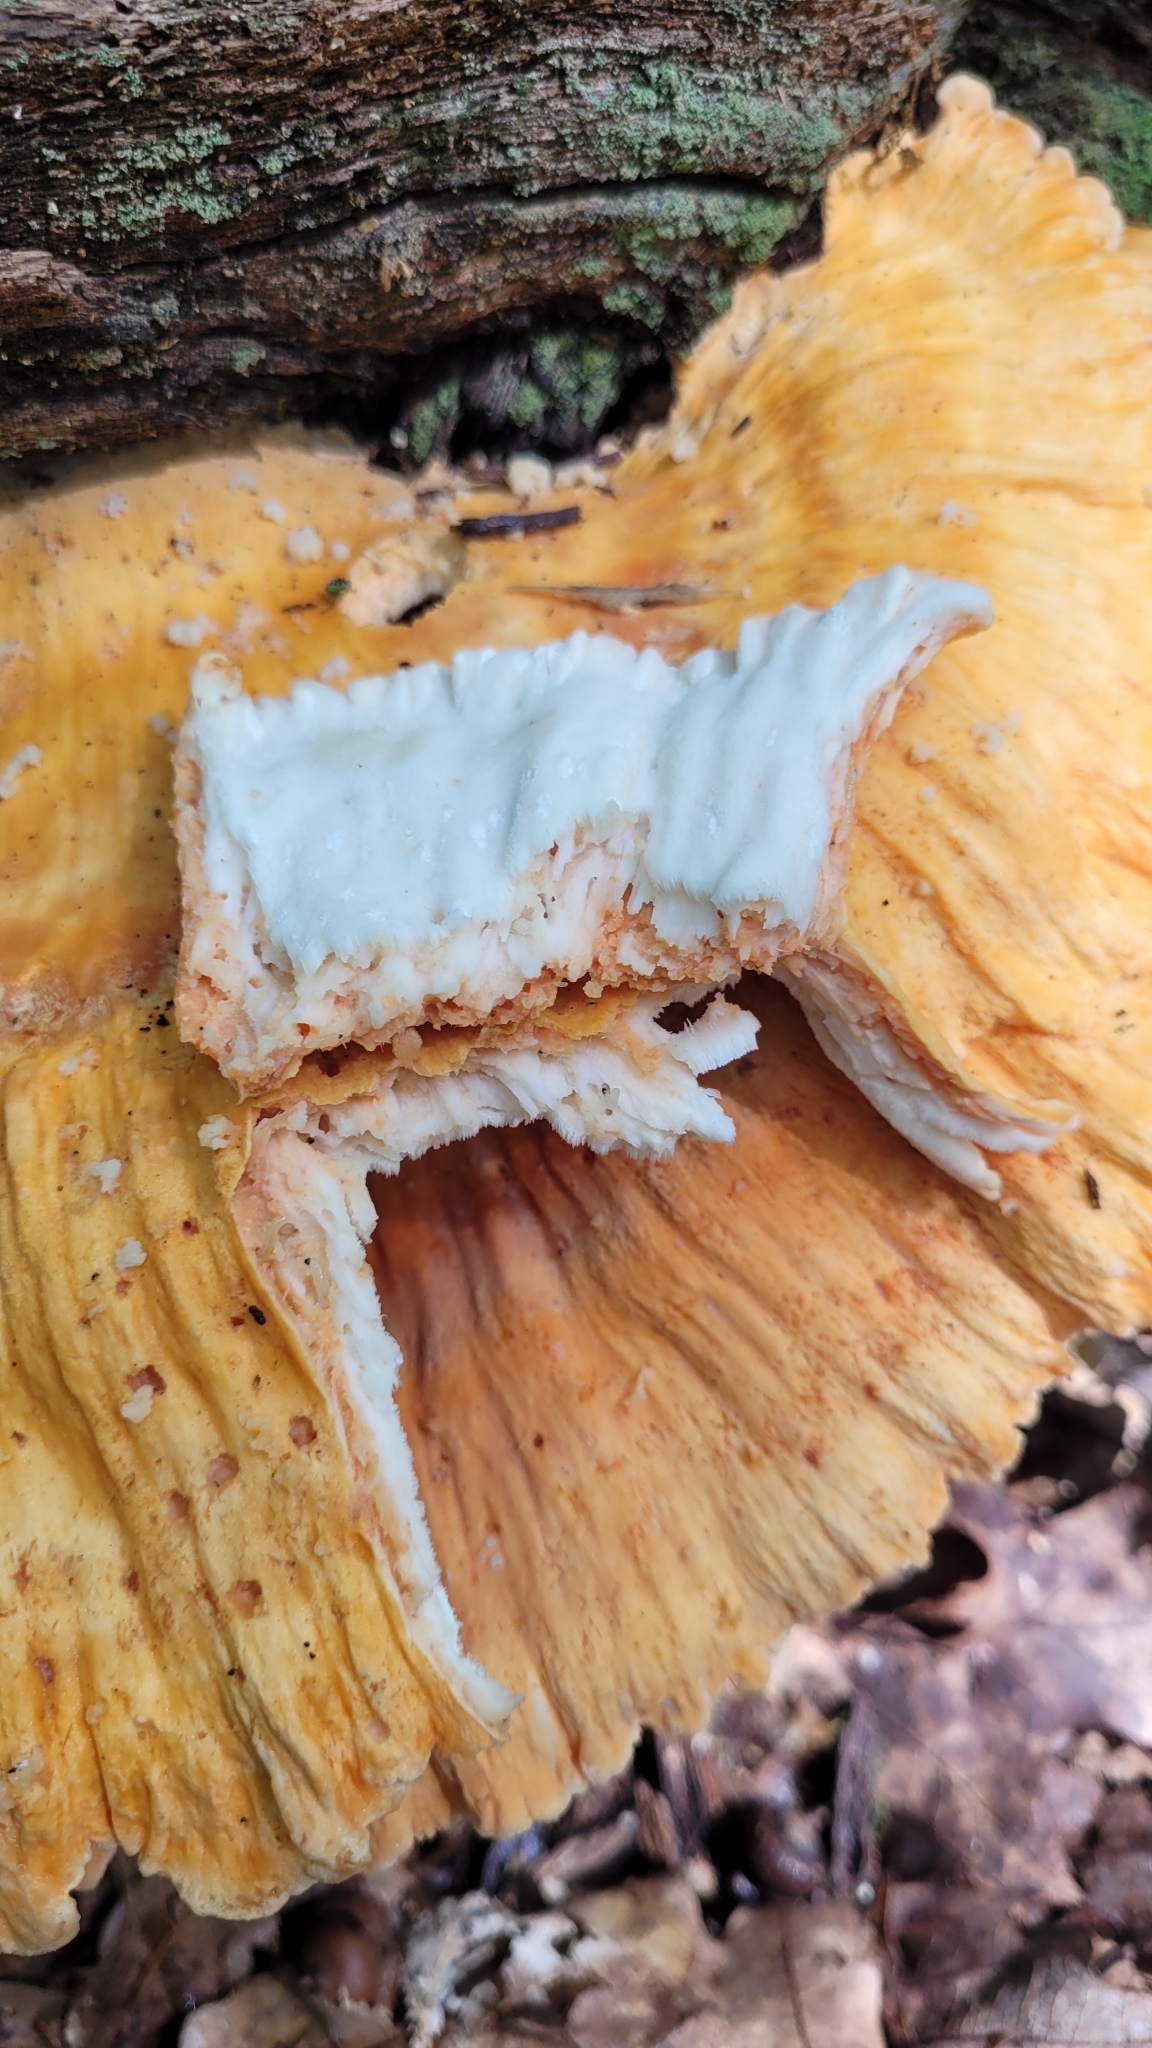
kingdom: Fungi
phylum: Basidiomycota
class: Agaricomycetes
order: Polyporales
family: Laetiporaceae
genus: Laetiporus
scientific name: Laetiporus sulphureus
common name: Chicken of the woods
